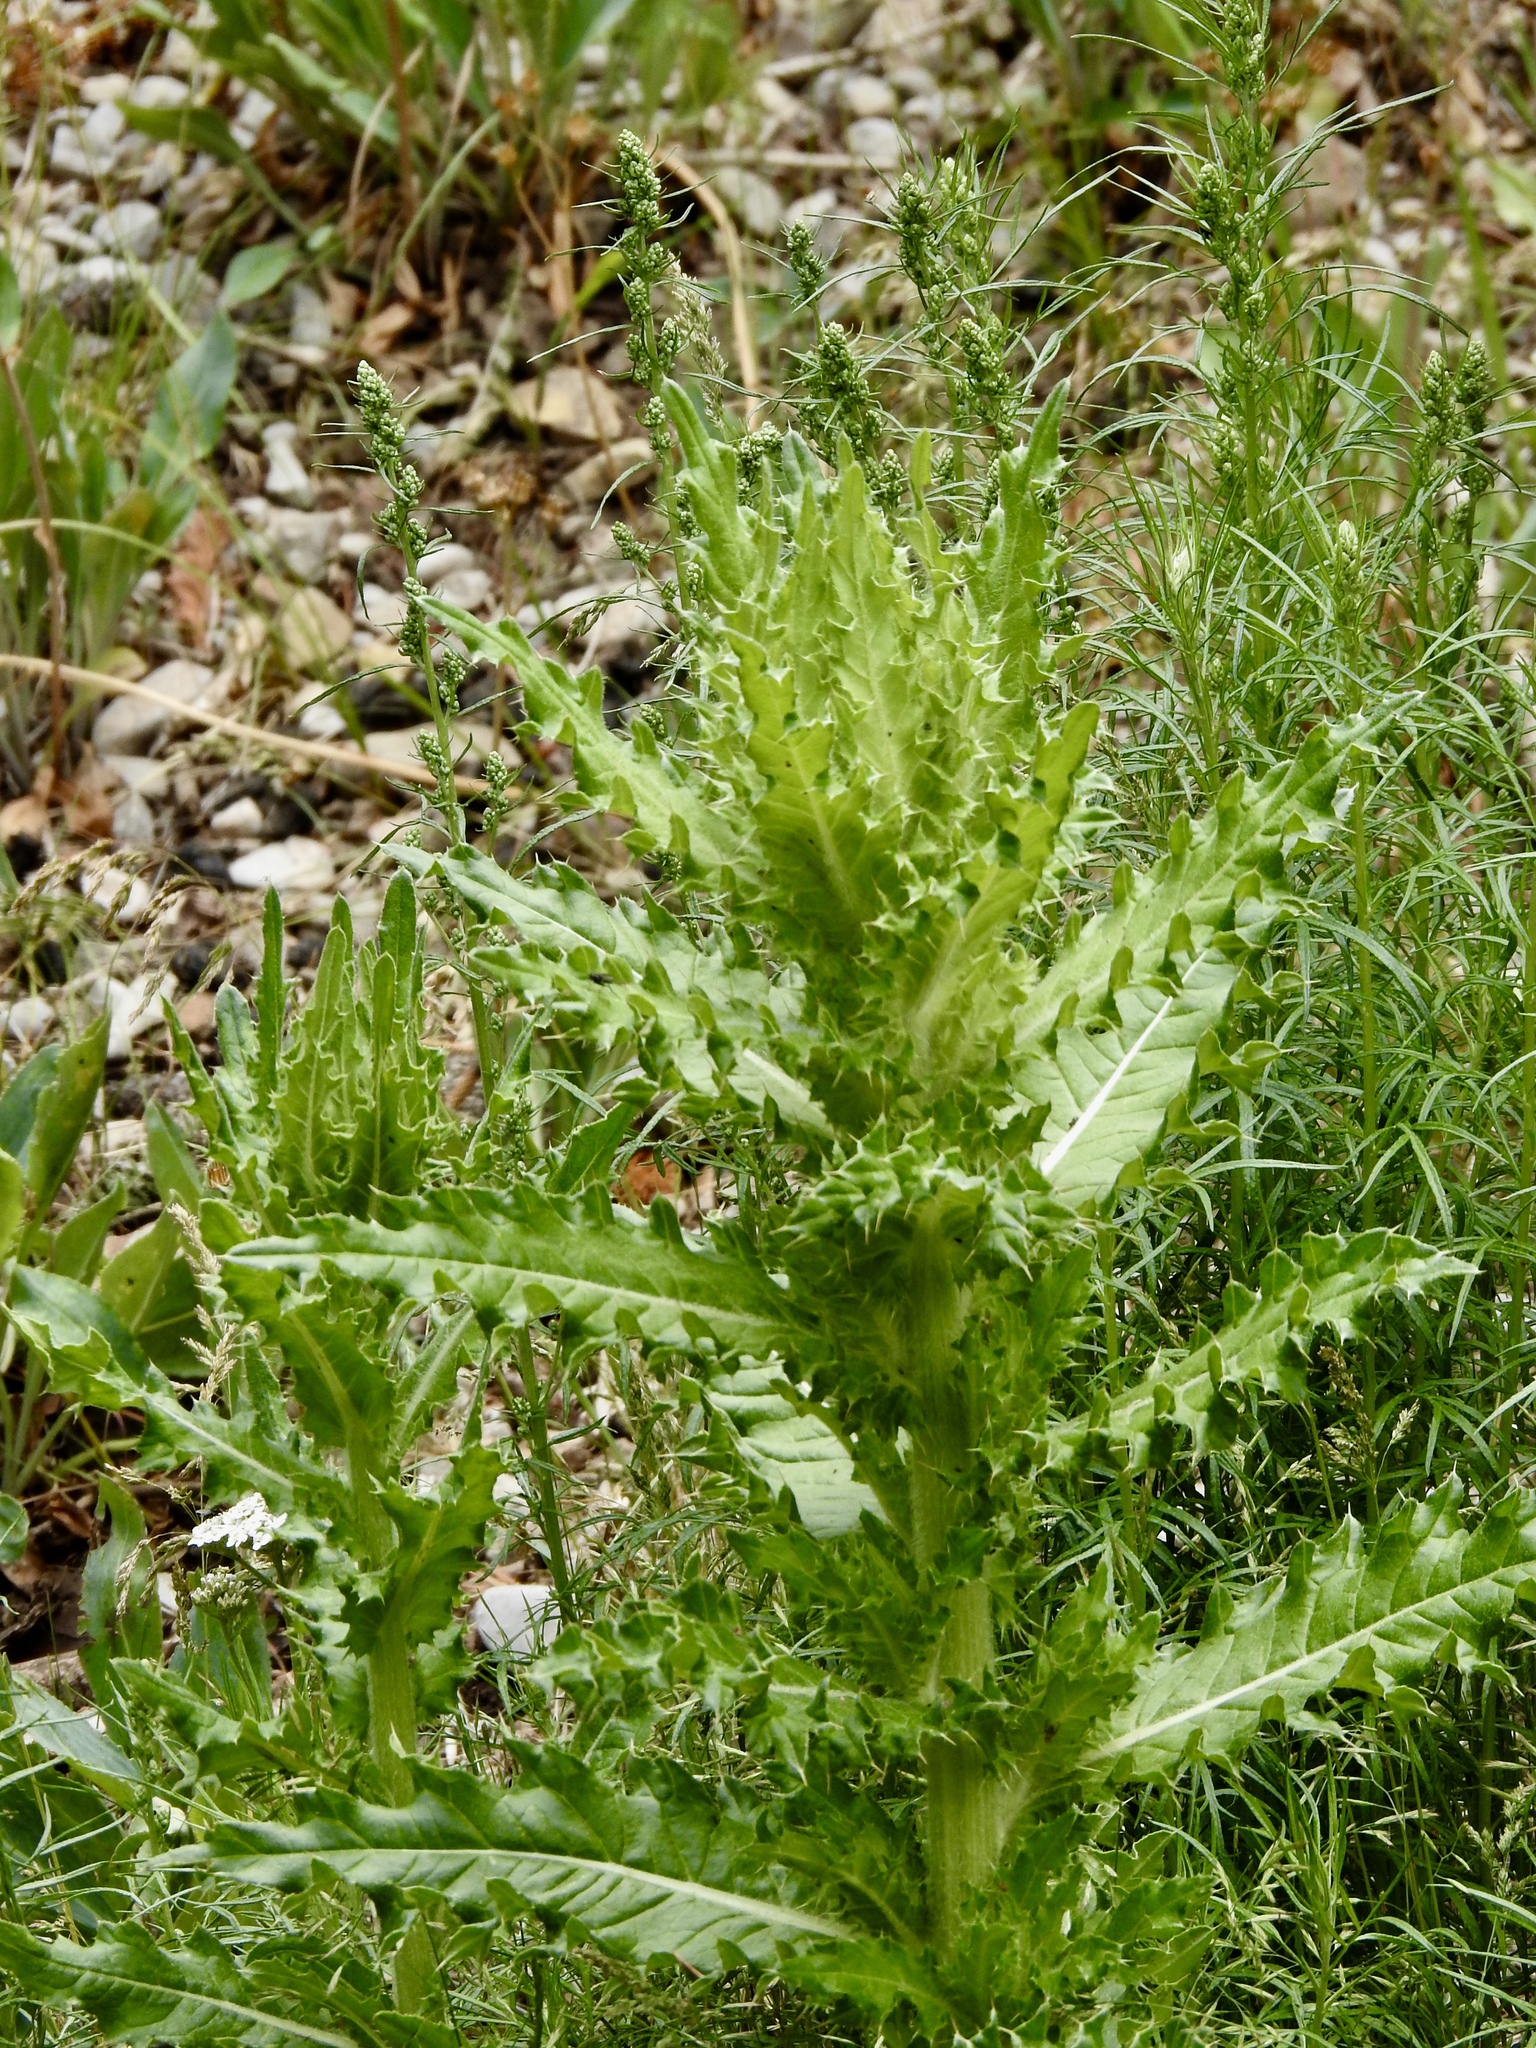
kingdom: Plantae
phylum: Tracheophyta
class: Magnoliopsida
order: Asterales
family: Asteraceae
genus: Cirsium
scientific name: Cirsium parryi
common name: Parry's thistle
